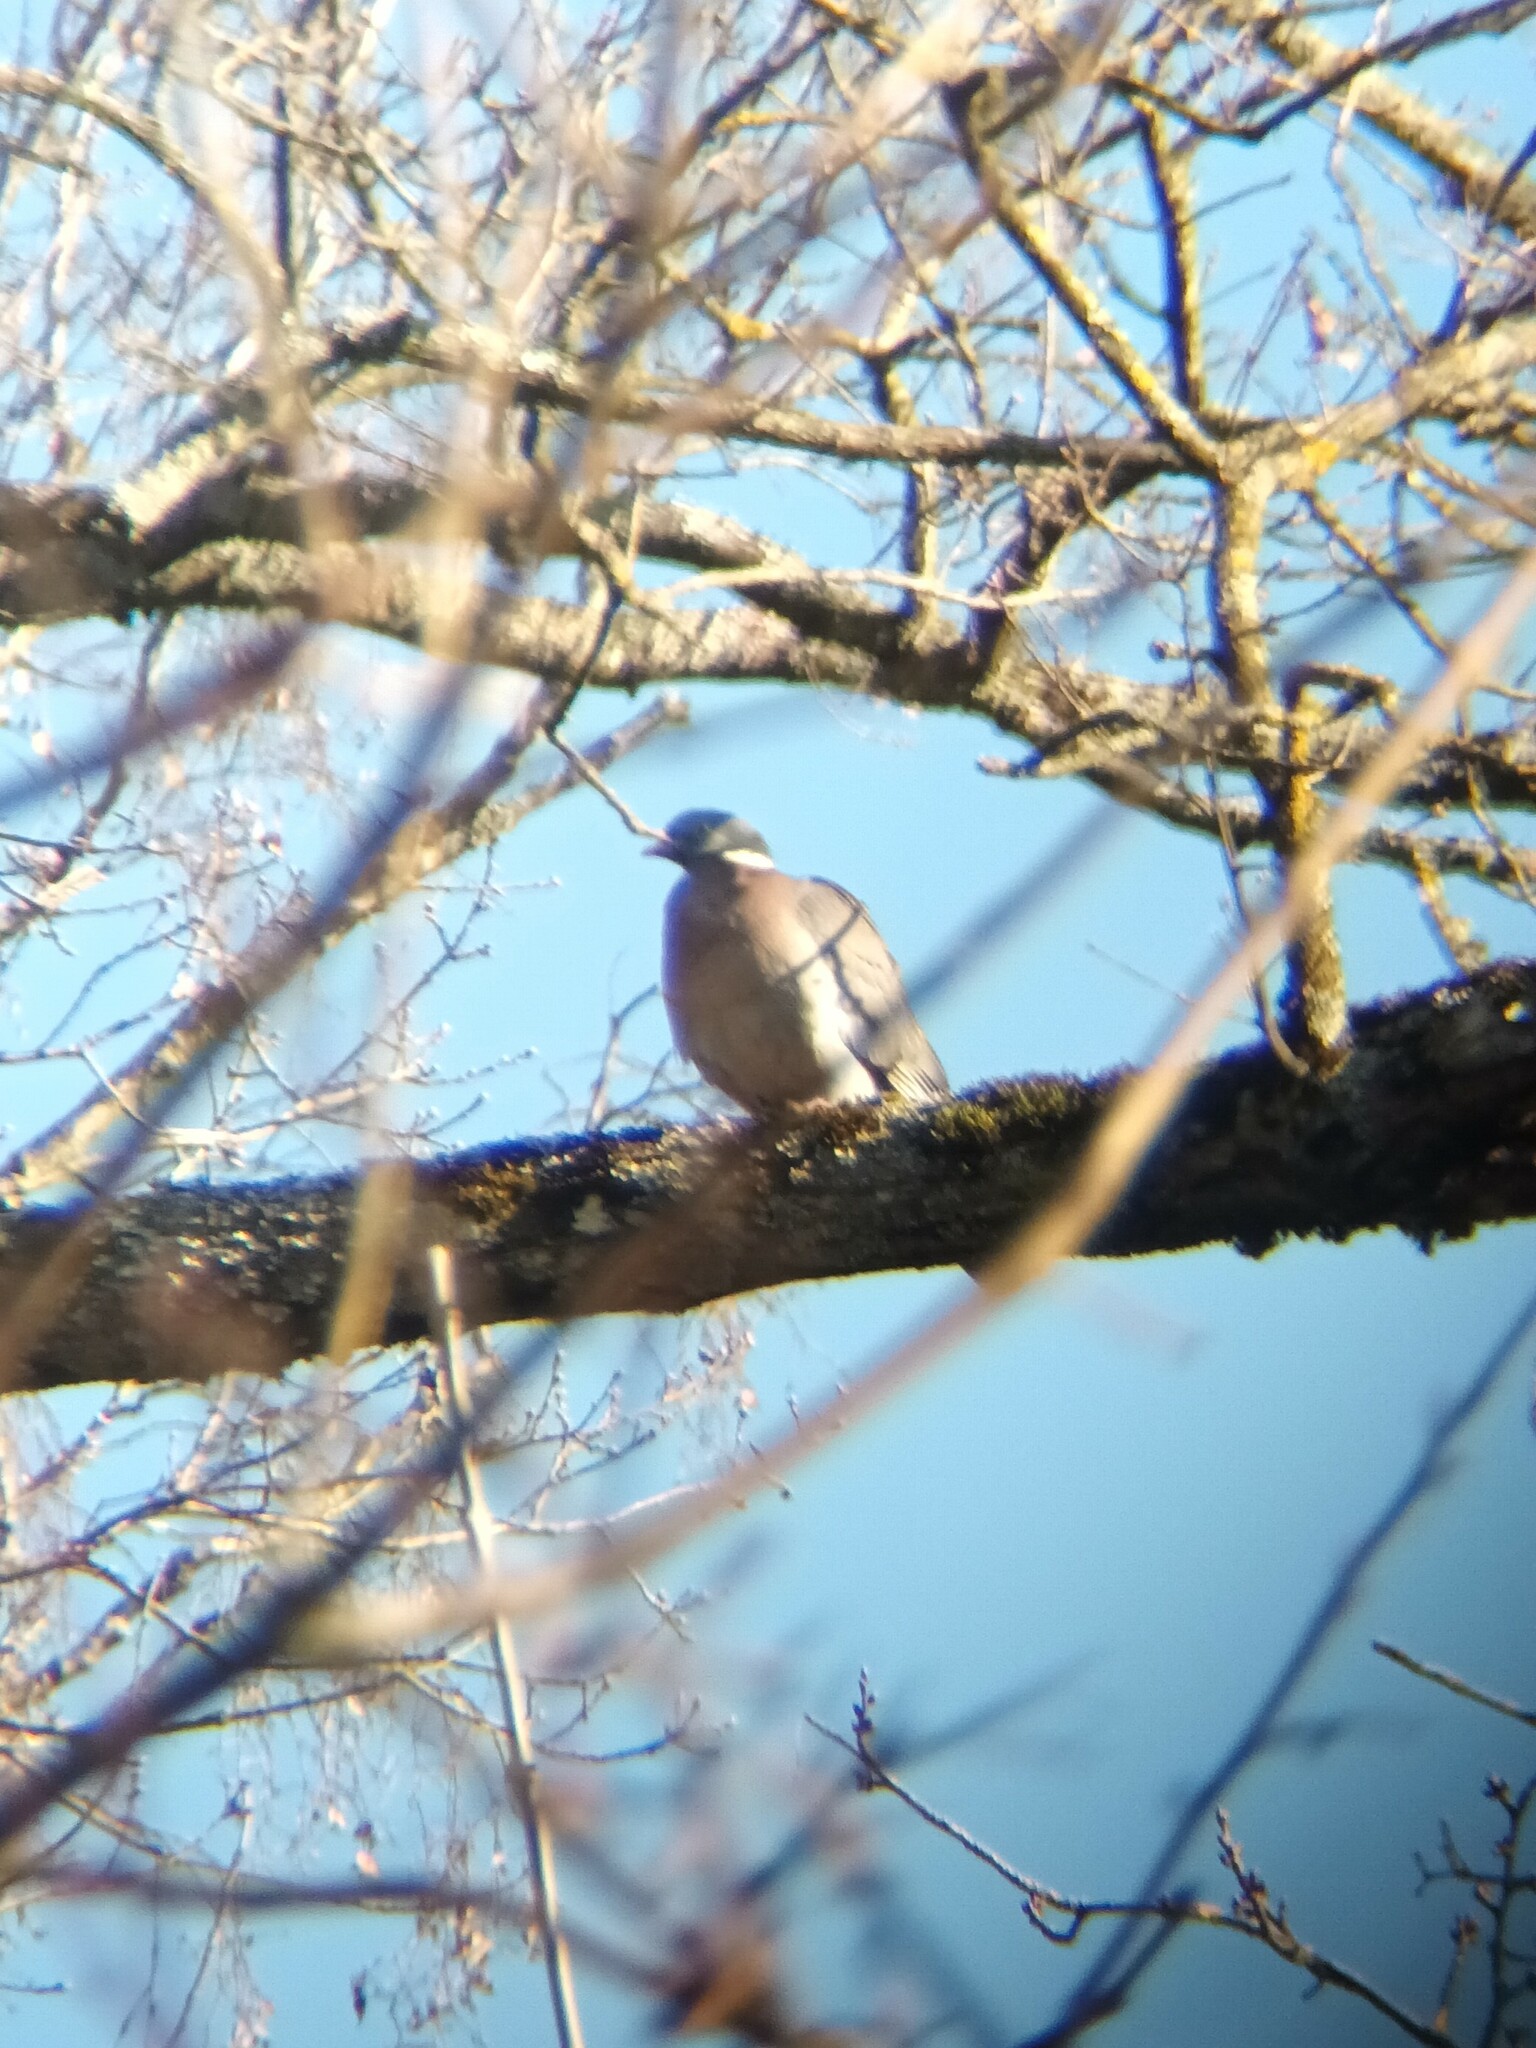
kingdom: Animalia
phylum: Chordata
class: Aves
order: Columbiformes
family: Columbidae
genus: Columba
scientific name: Columba palumbus
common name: Common wood pigeon
